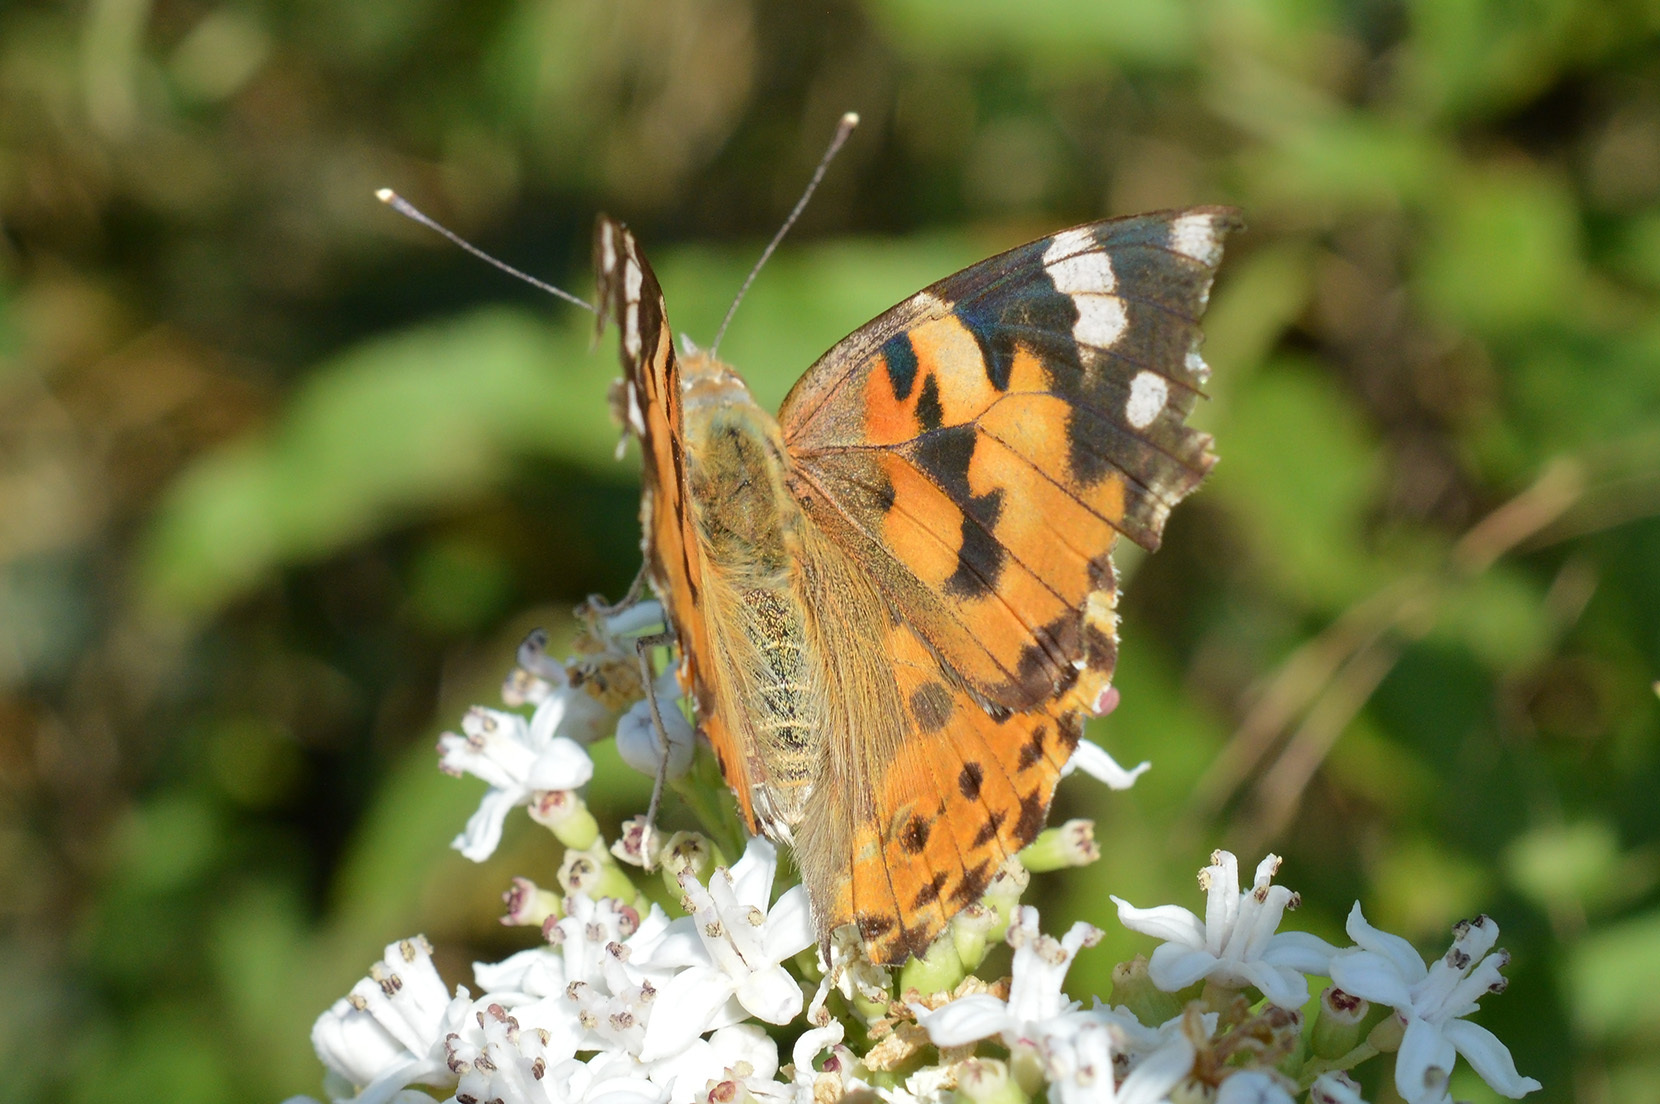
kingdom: Animalia
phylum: Arthropoda
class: Insecta
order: Lepidoptera
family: Nymphalidae
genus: Vanessa
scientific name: Vanessa cardui
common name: Painted lady
